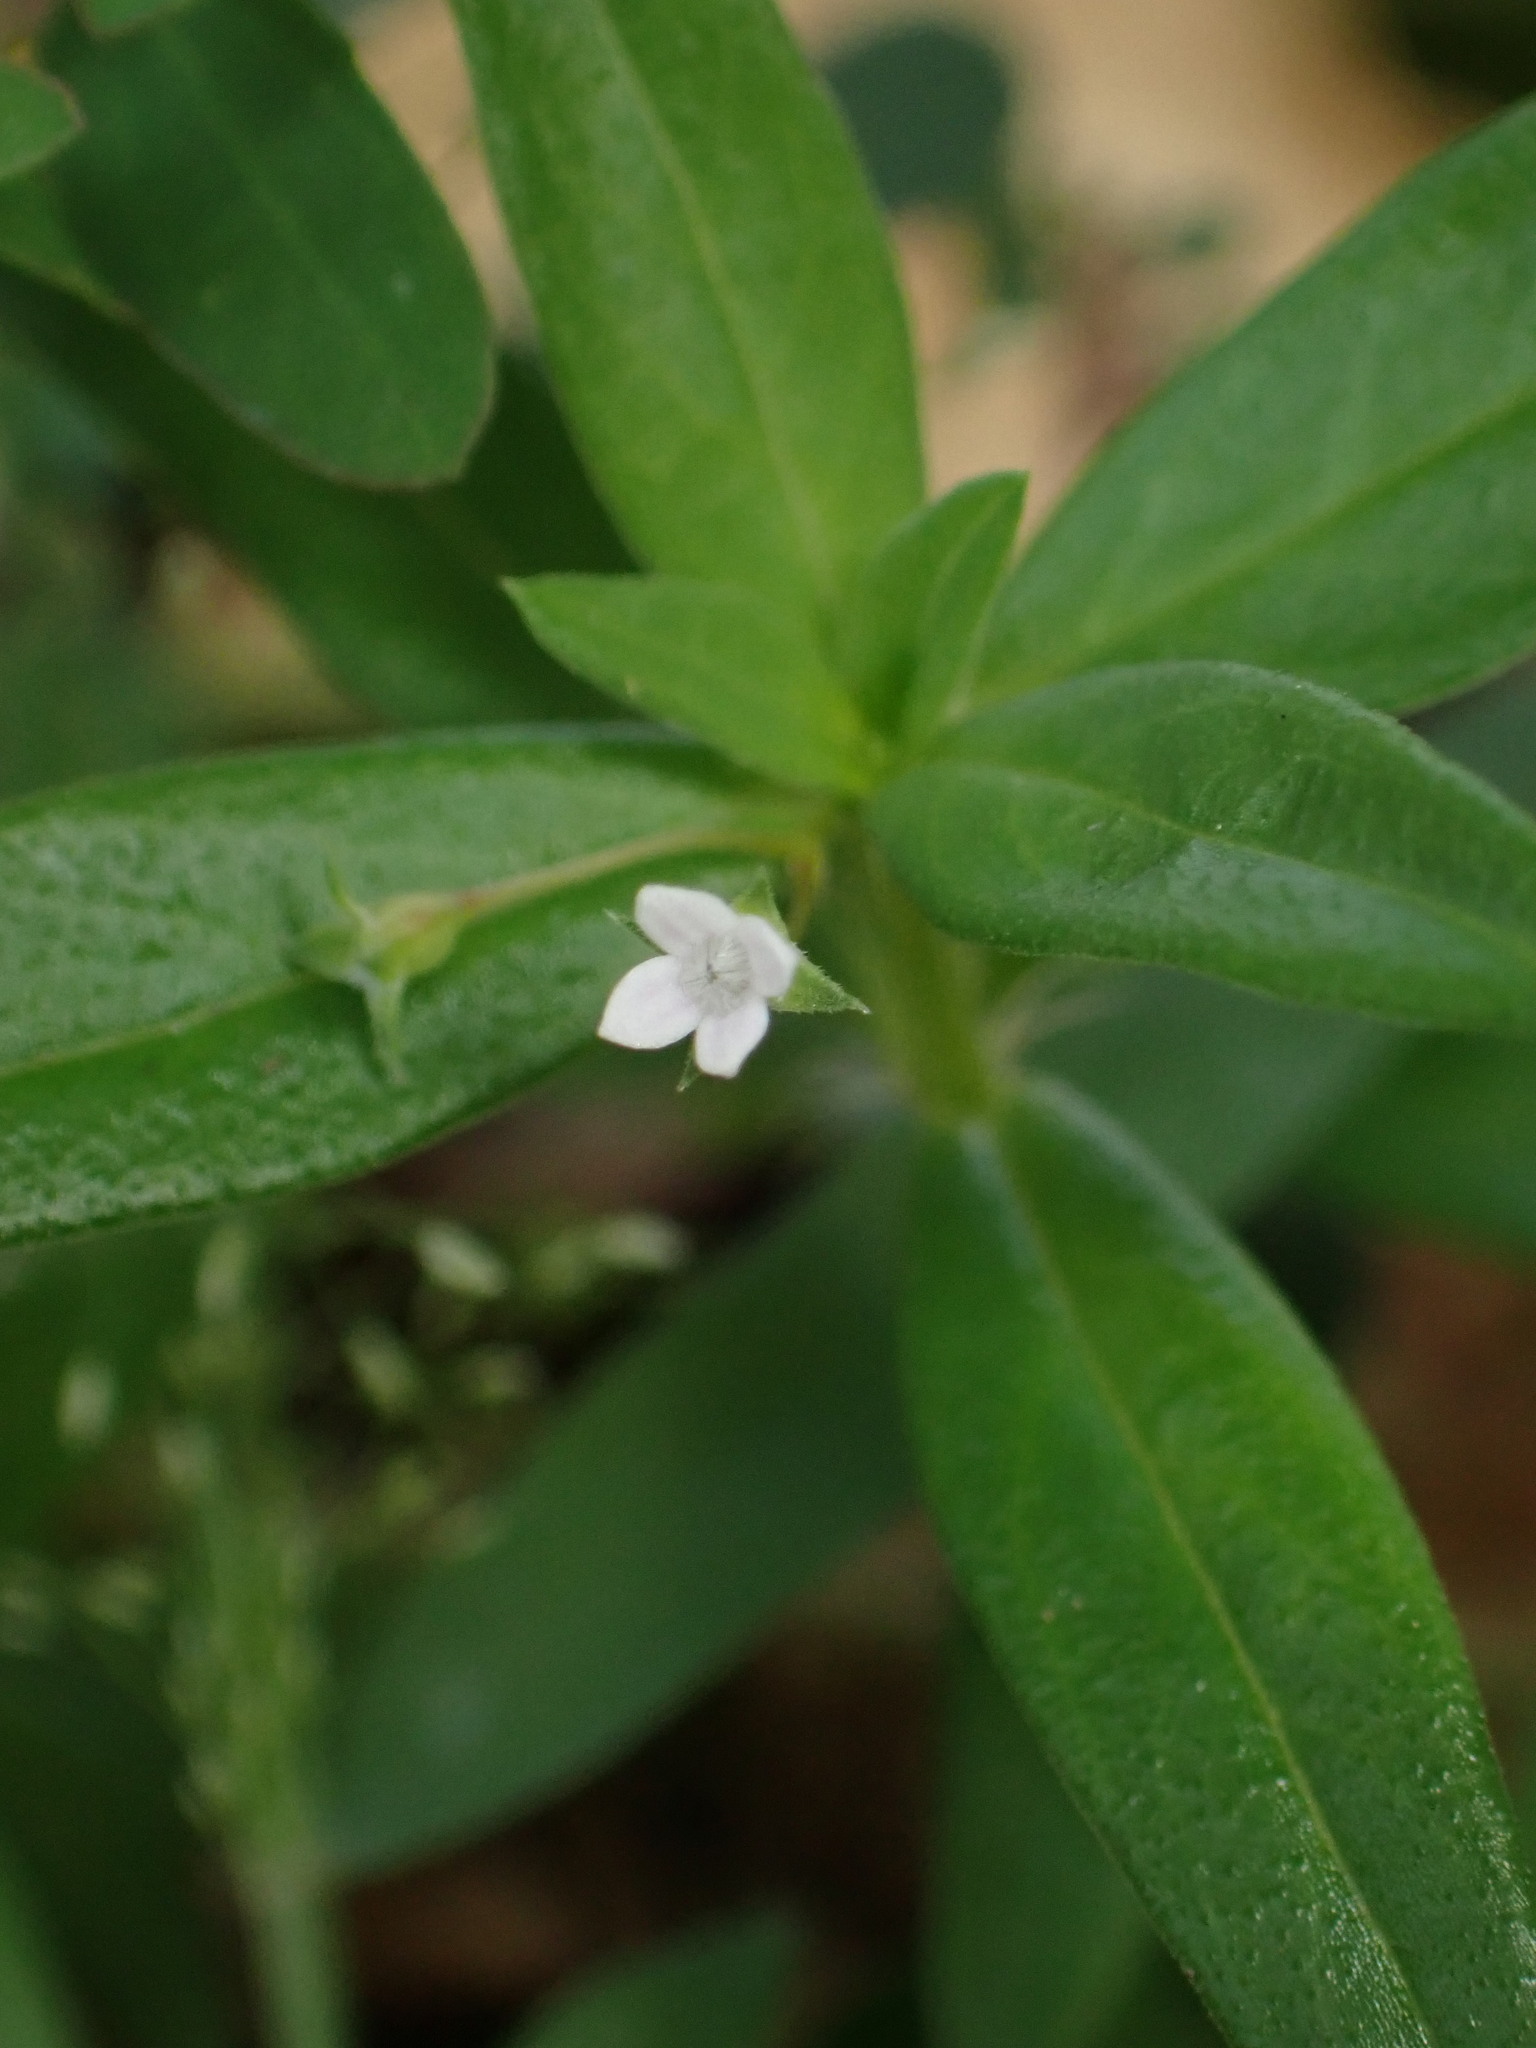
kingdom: Plantae
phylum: Tracheophyta
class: Magnoliopsida
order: Gentianales
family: Rubiaceae
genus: Oldenlandia
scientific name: Oldenlandia corymbosa
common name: Flat-top mille graines
